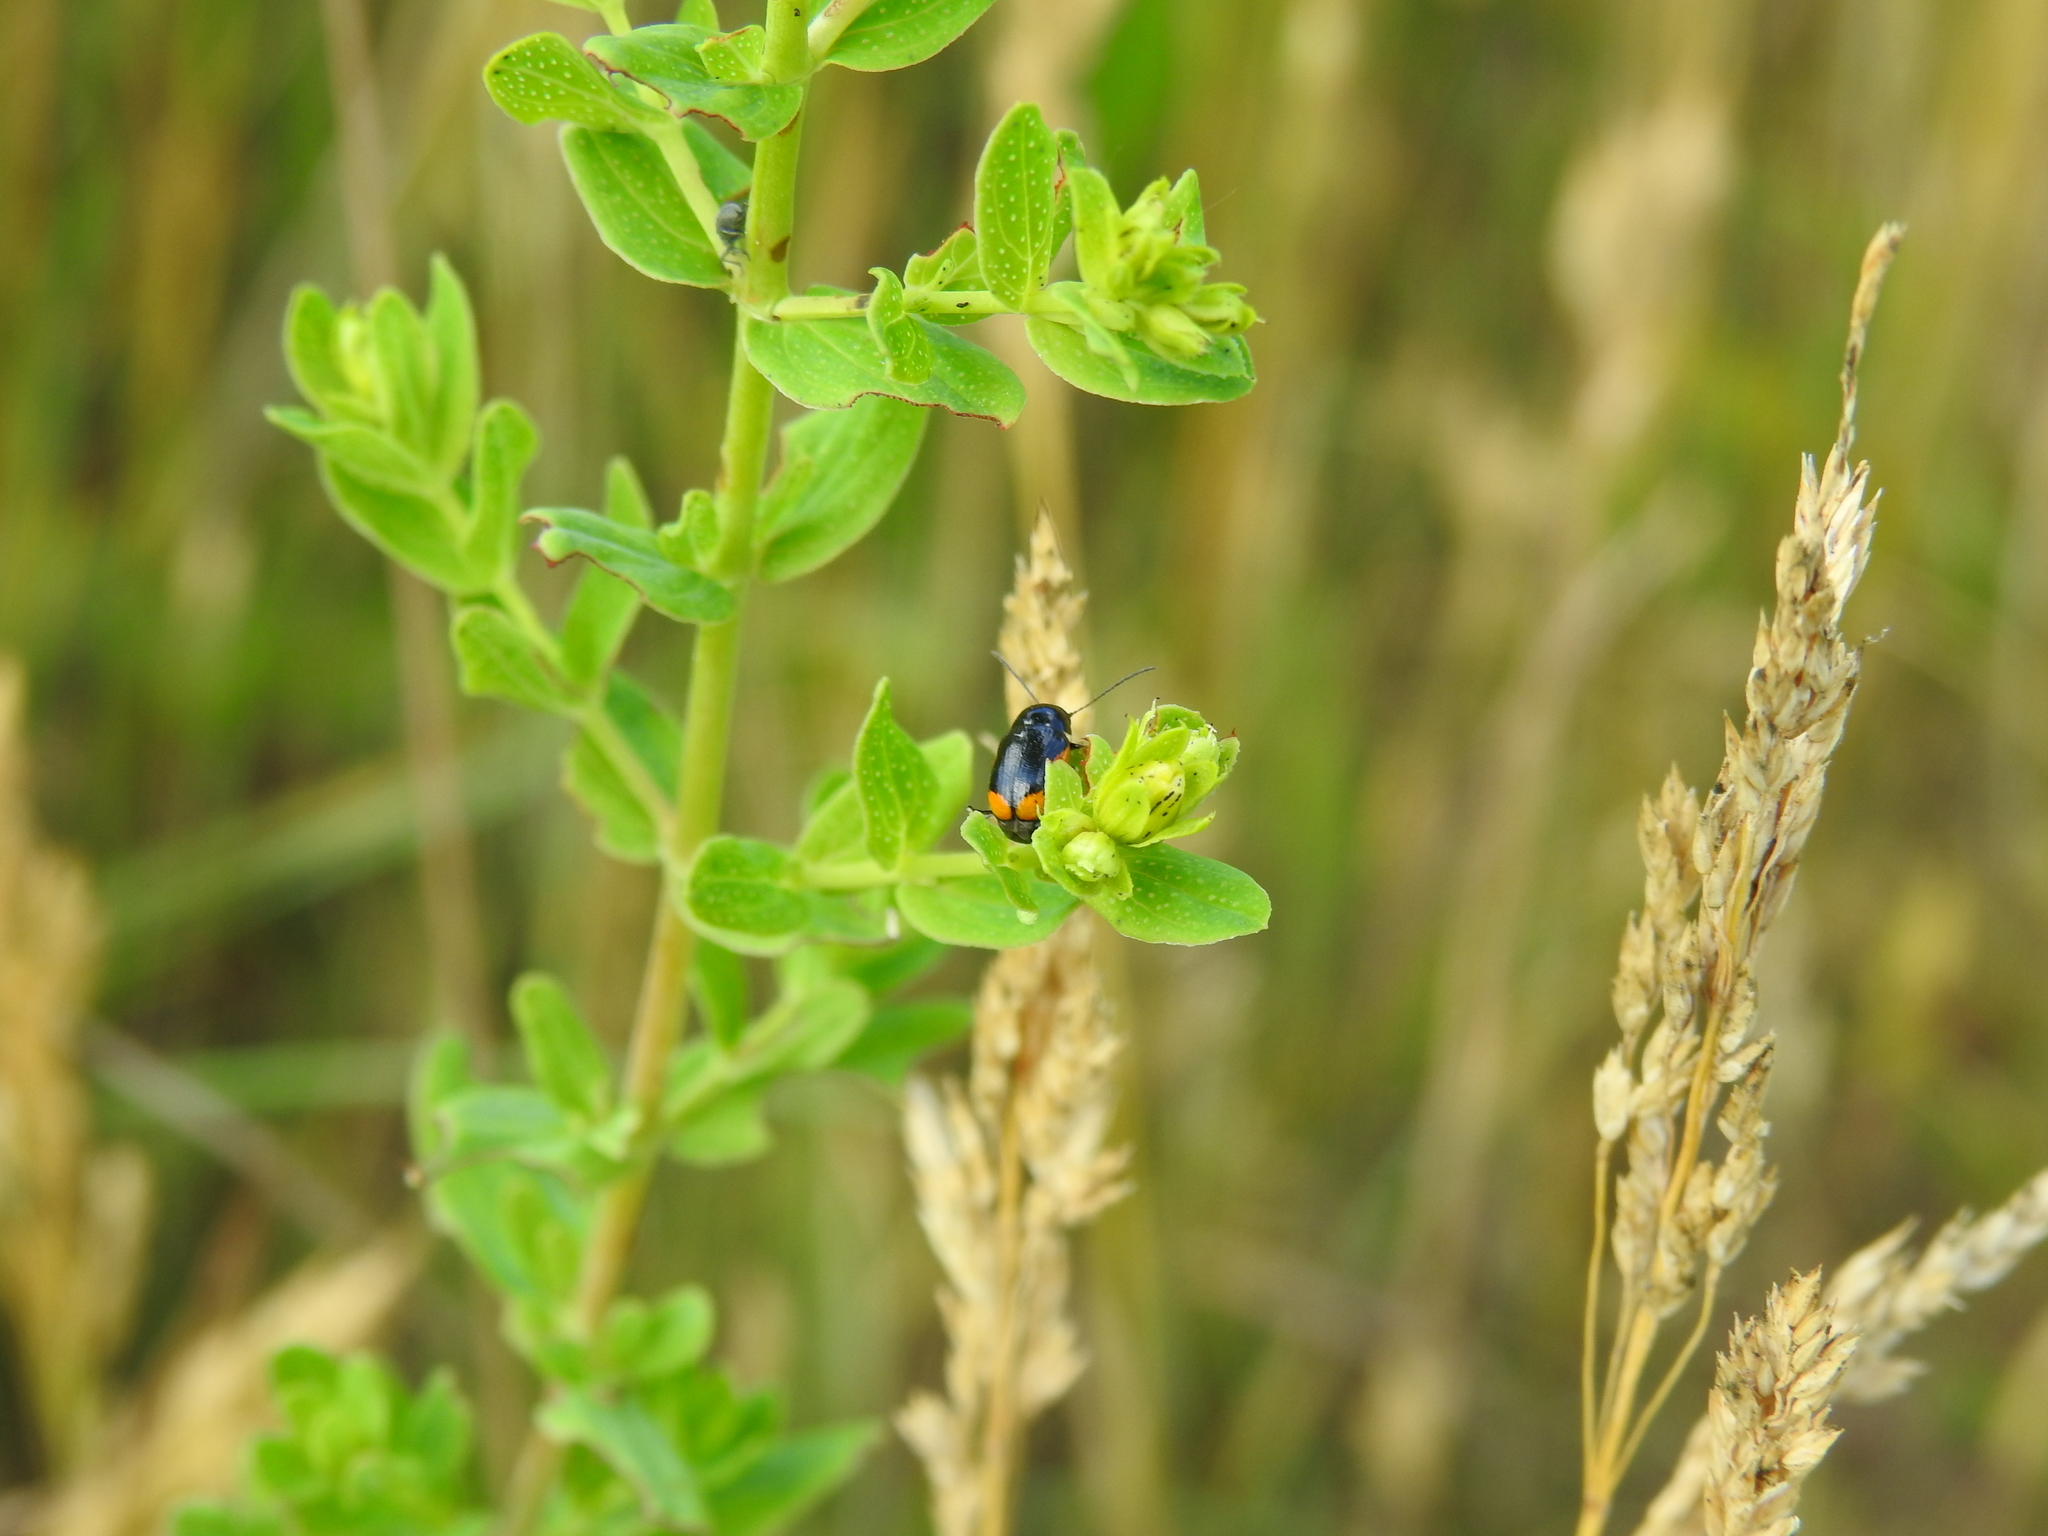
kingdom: Animalia
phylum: Arthropoda
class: Insecta
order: Coleoptera
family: Chrysomelidae
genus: Cryptocephalus
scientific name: Cryptocephalus moraei
